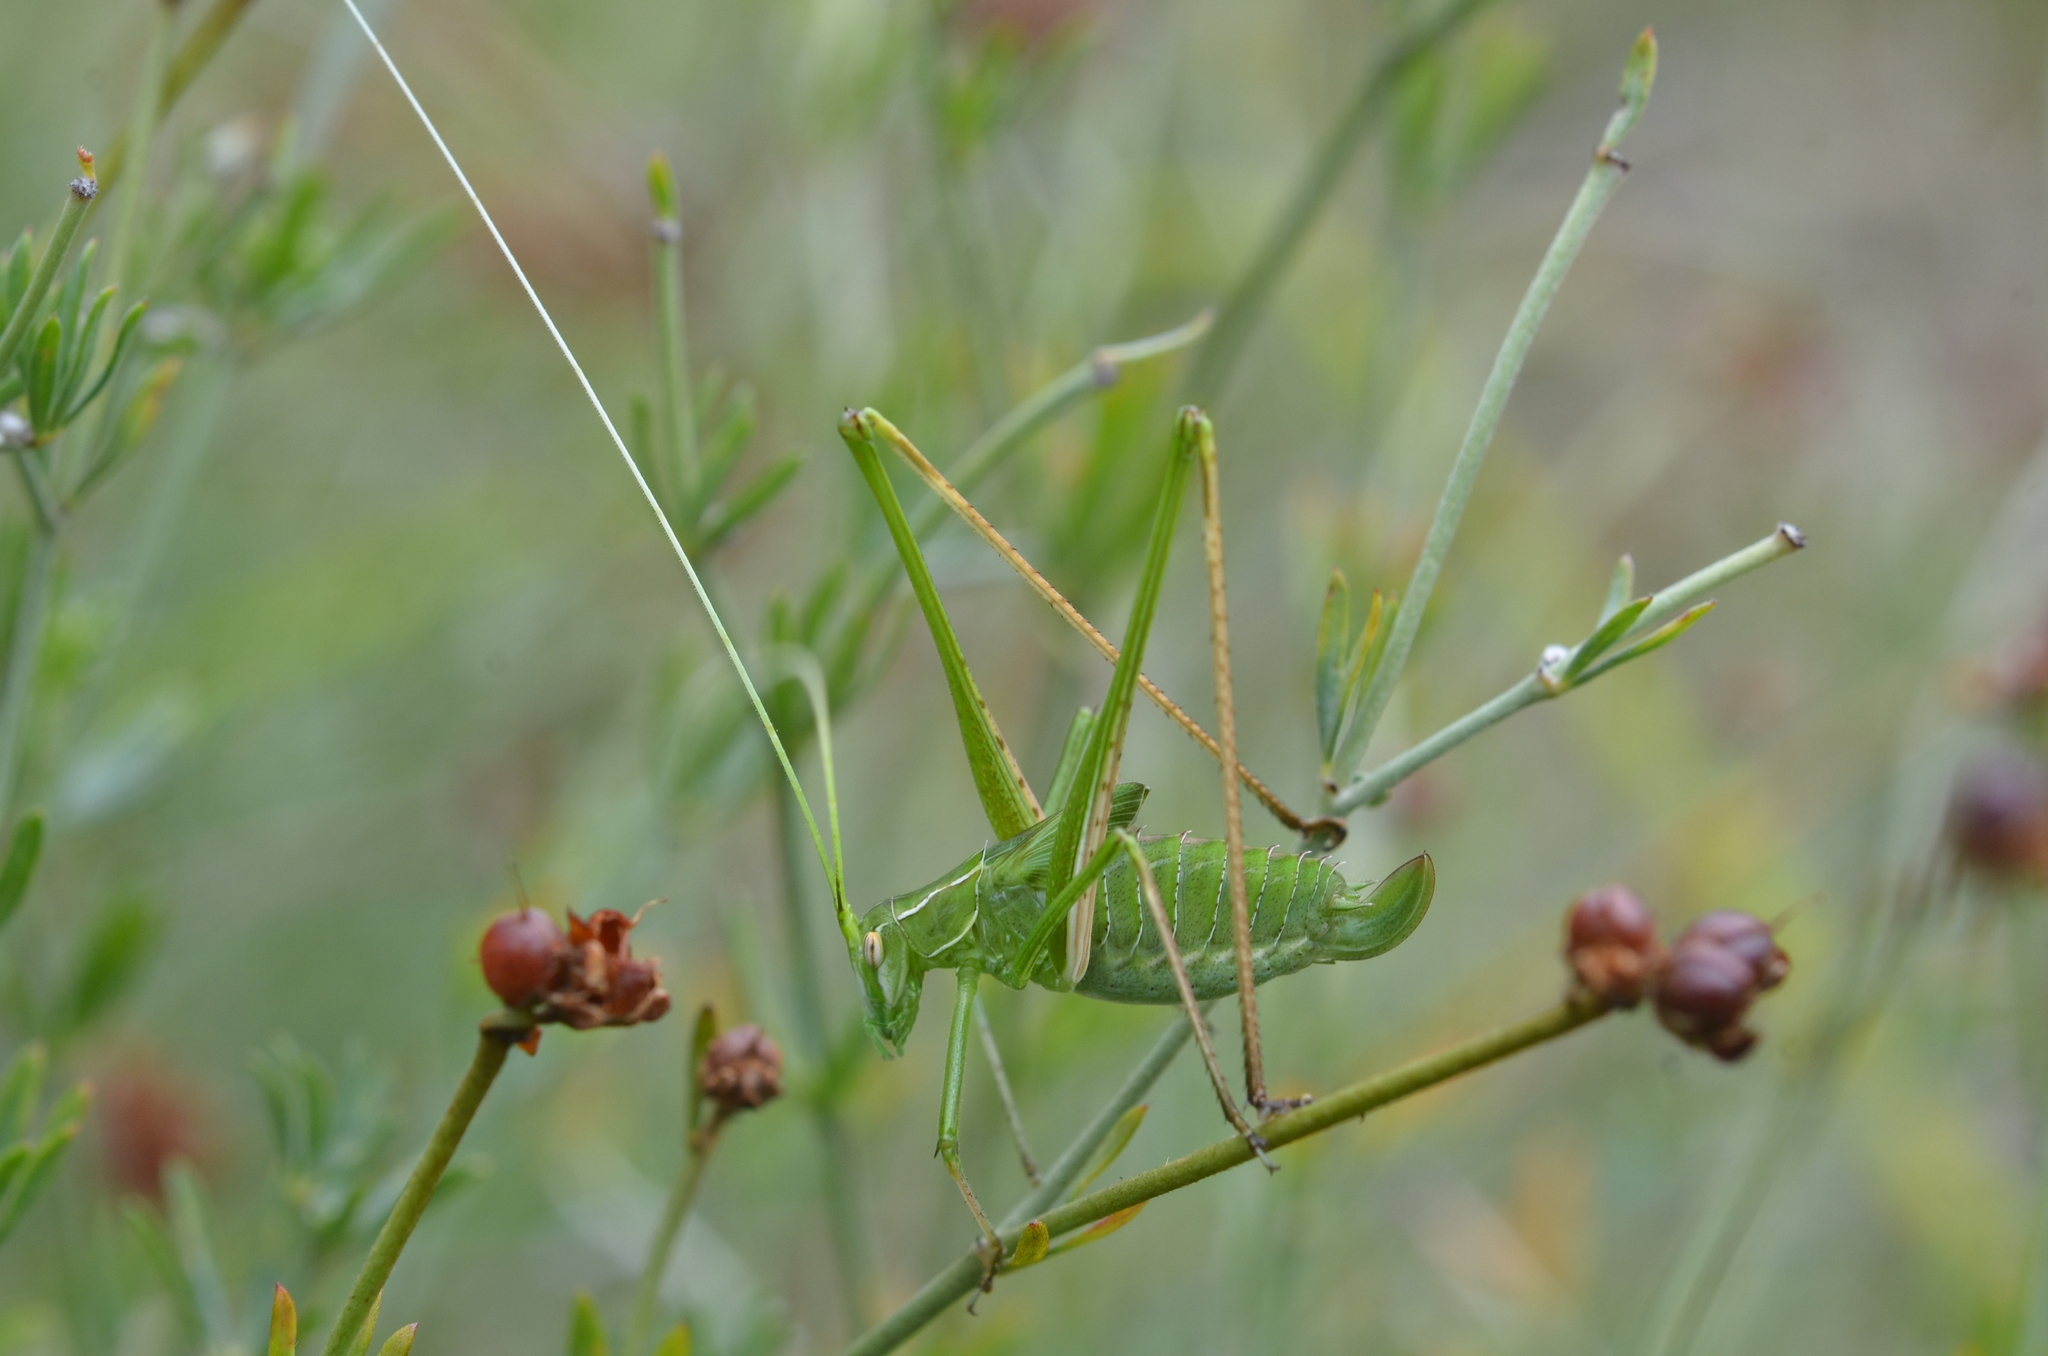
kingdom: Animalia
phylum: Arthropoda
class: Insecta
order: Orthoptera
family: Tettigoniidae
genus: Tylopsis
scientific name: Tylopsis lilifolia
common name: Lily bush-cricket
